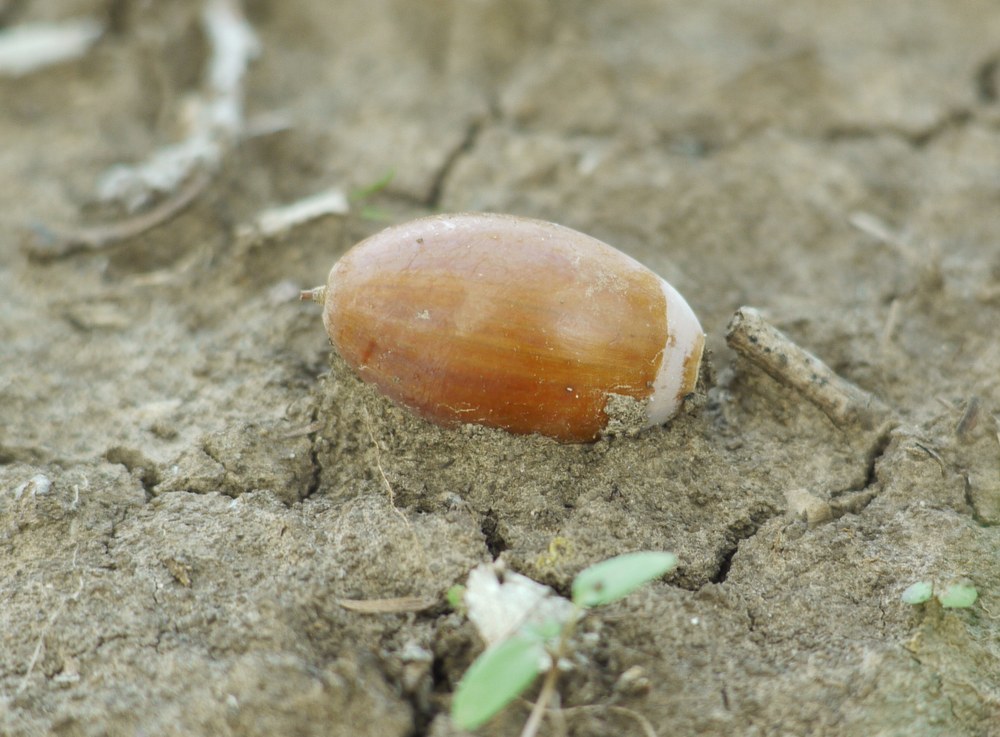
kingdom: Plantae
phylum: Tracheophyta
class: Magnoliopsida
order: Fagales
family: Fagaceae
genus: Quercus
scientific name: Quercus robur
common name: Pedunculate oak
